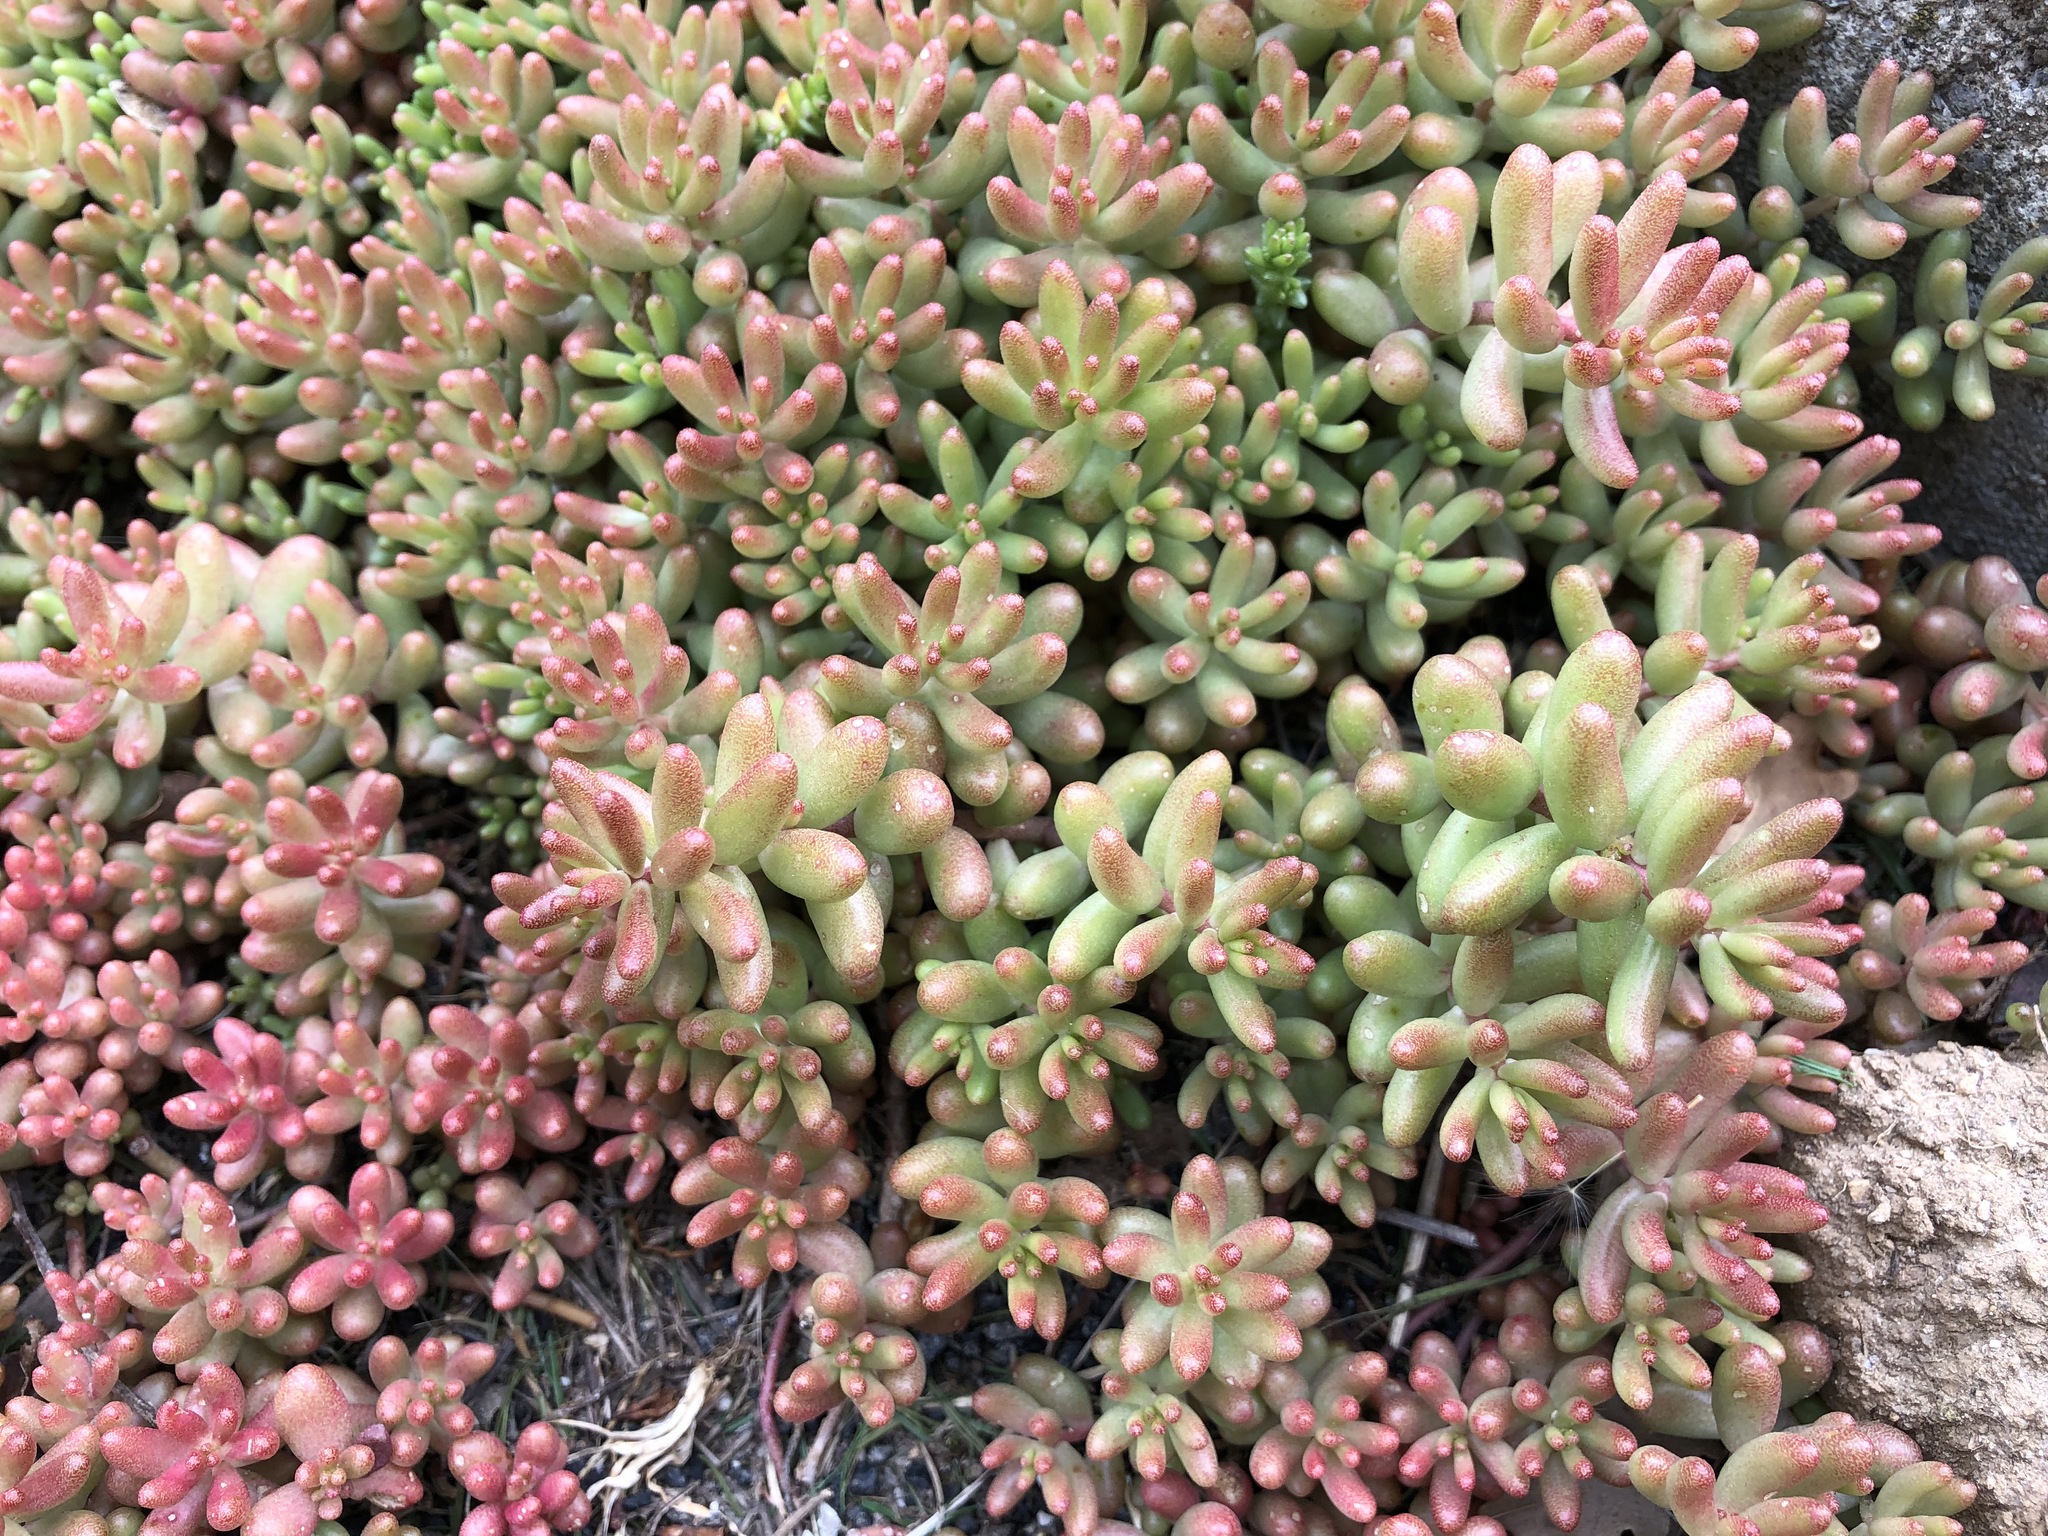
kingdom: Plantae
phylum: Tracheophyta
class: Magnoliopsida
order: Saxifragales
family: Crassulaceae
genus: Sedum
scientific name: Sedum album
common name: White stonecrop
